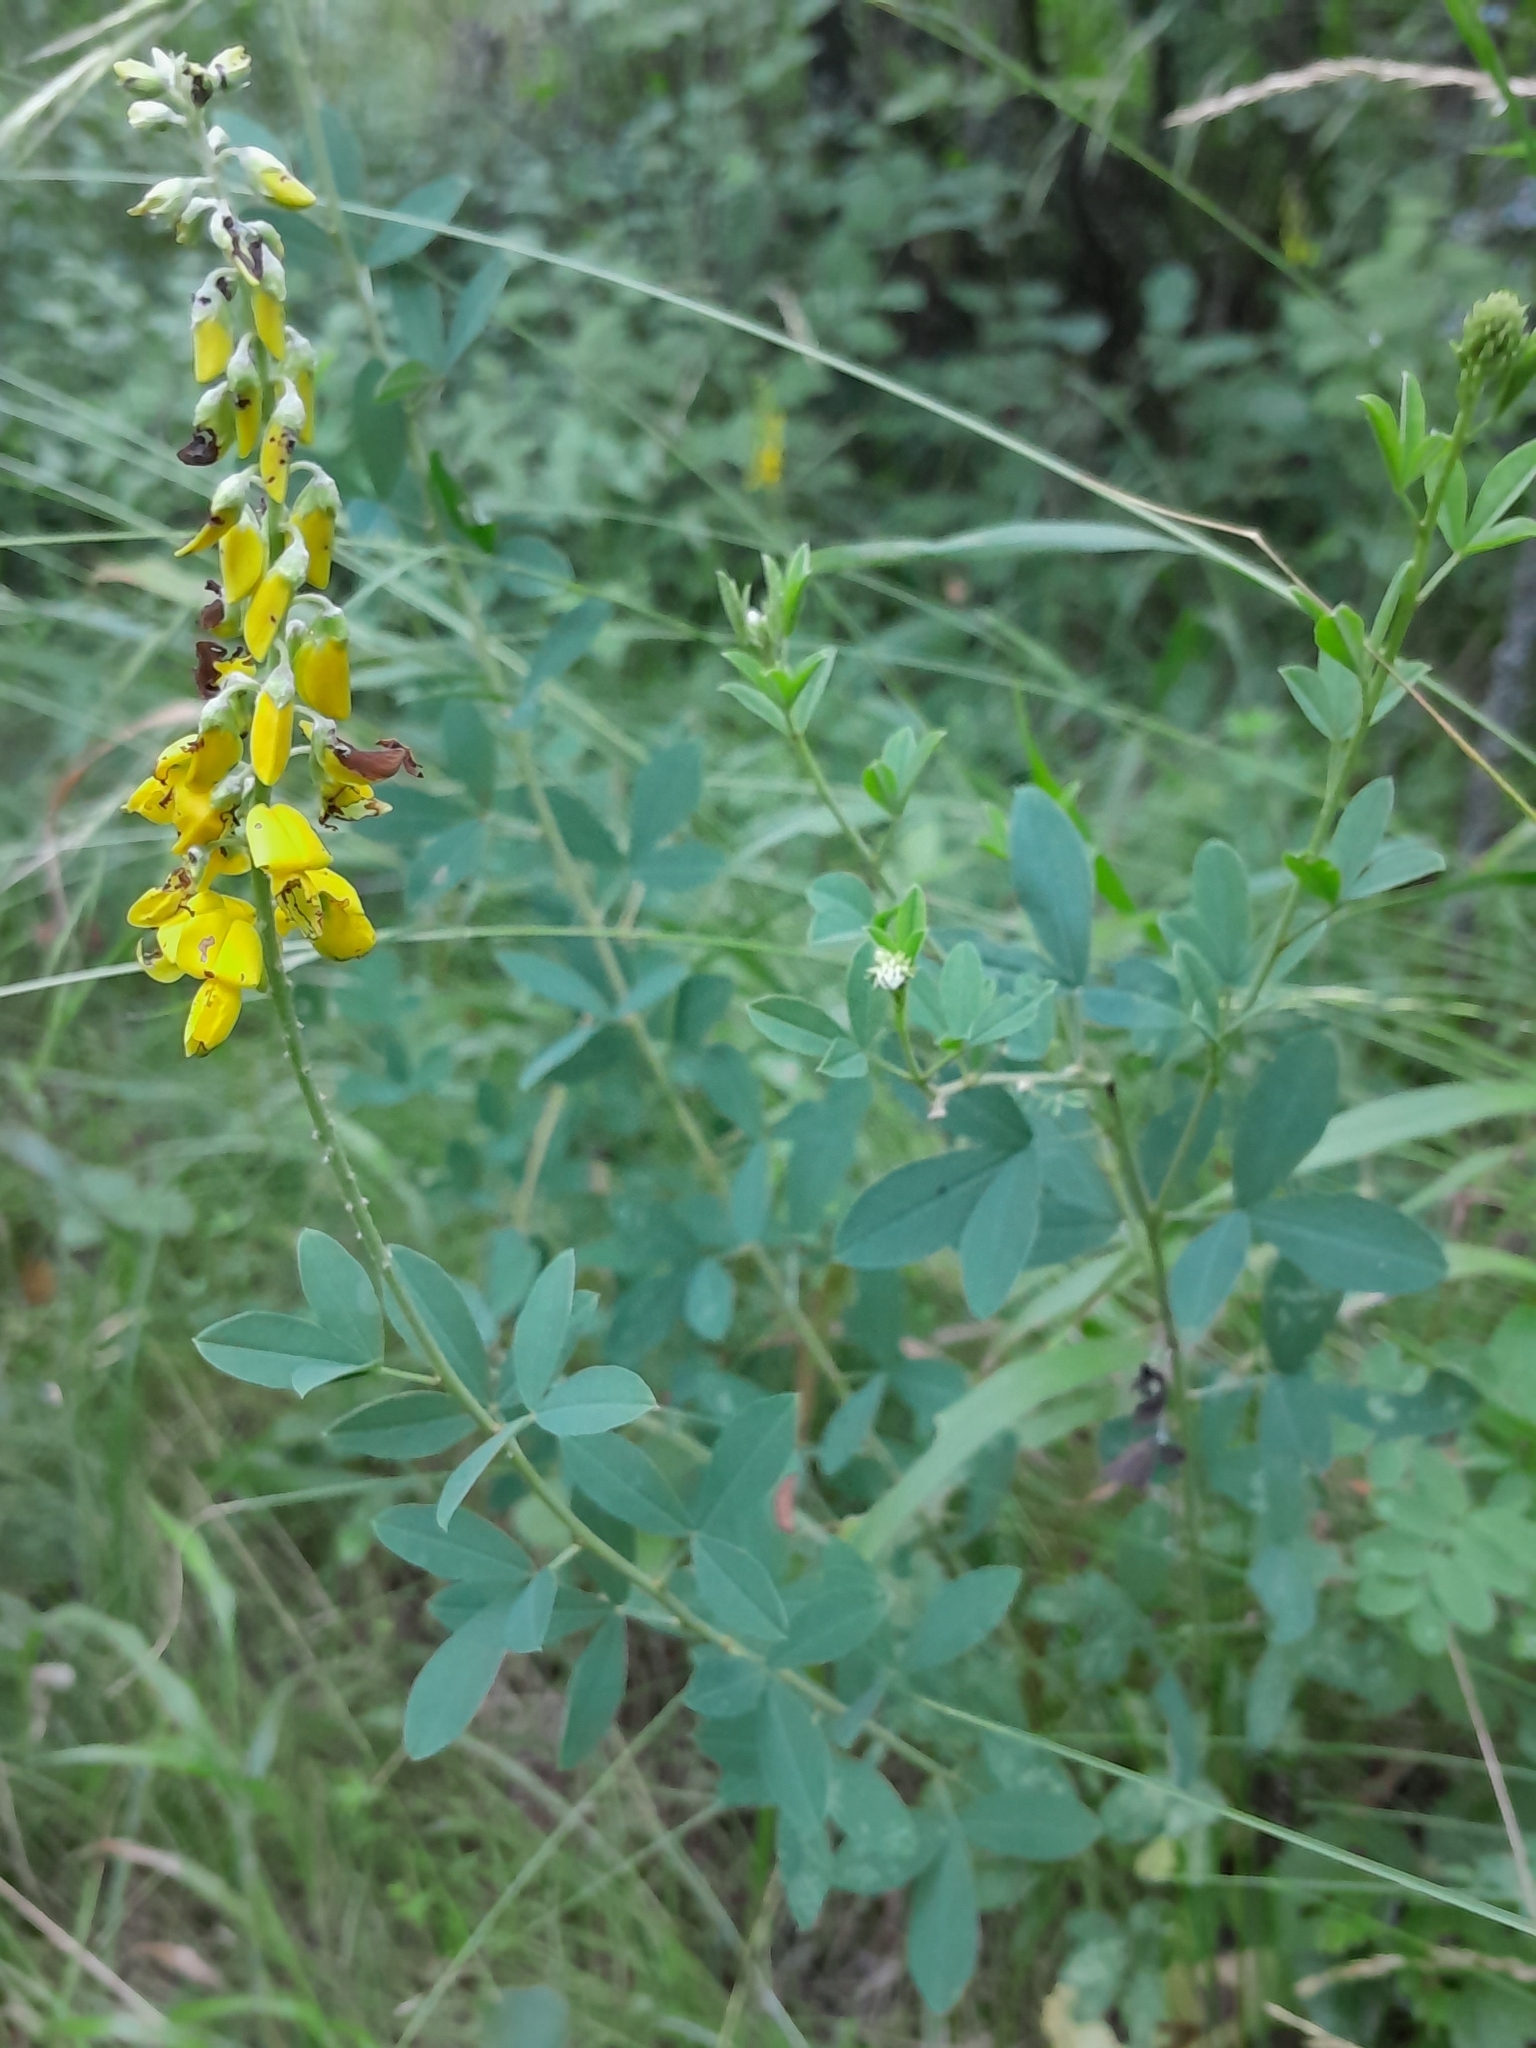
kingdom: Plantae
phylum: Tracheophyta
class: Magnoliopsida
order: Fabales
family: Fabaceae
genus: Cytisus
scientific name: Cytisus nigricans
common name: Black broom
